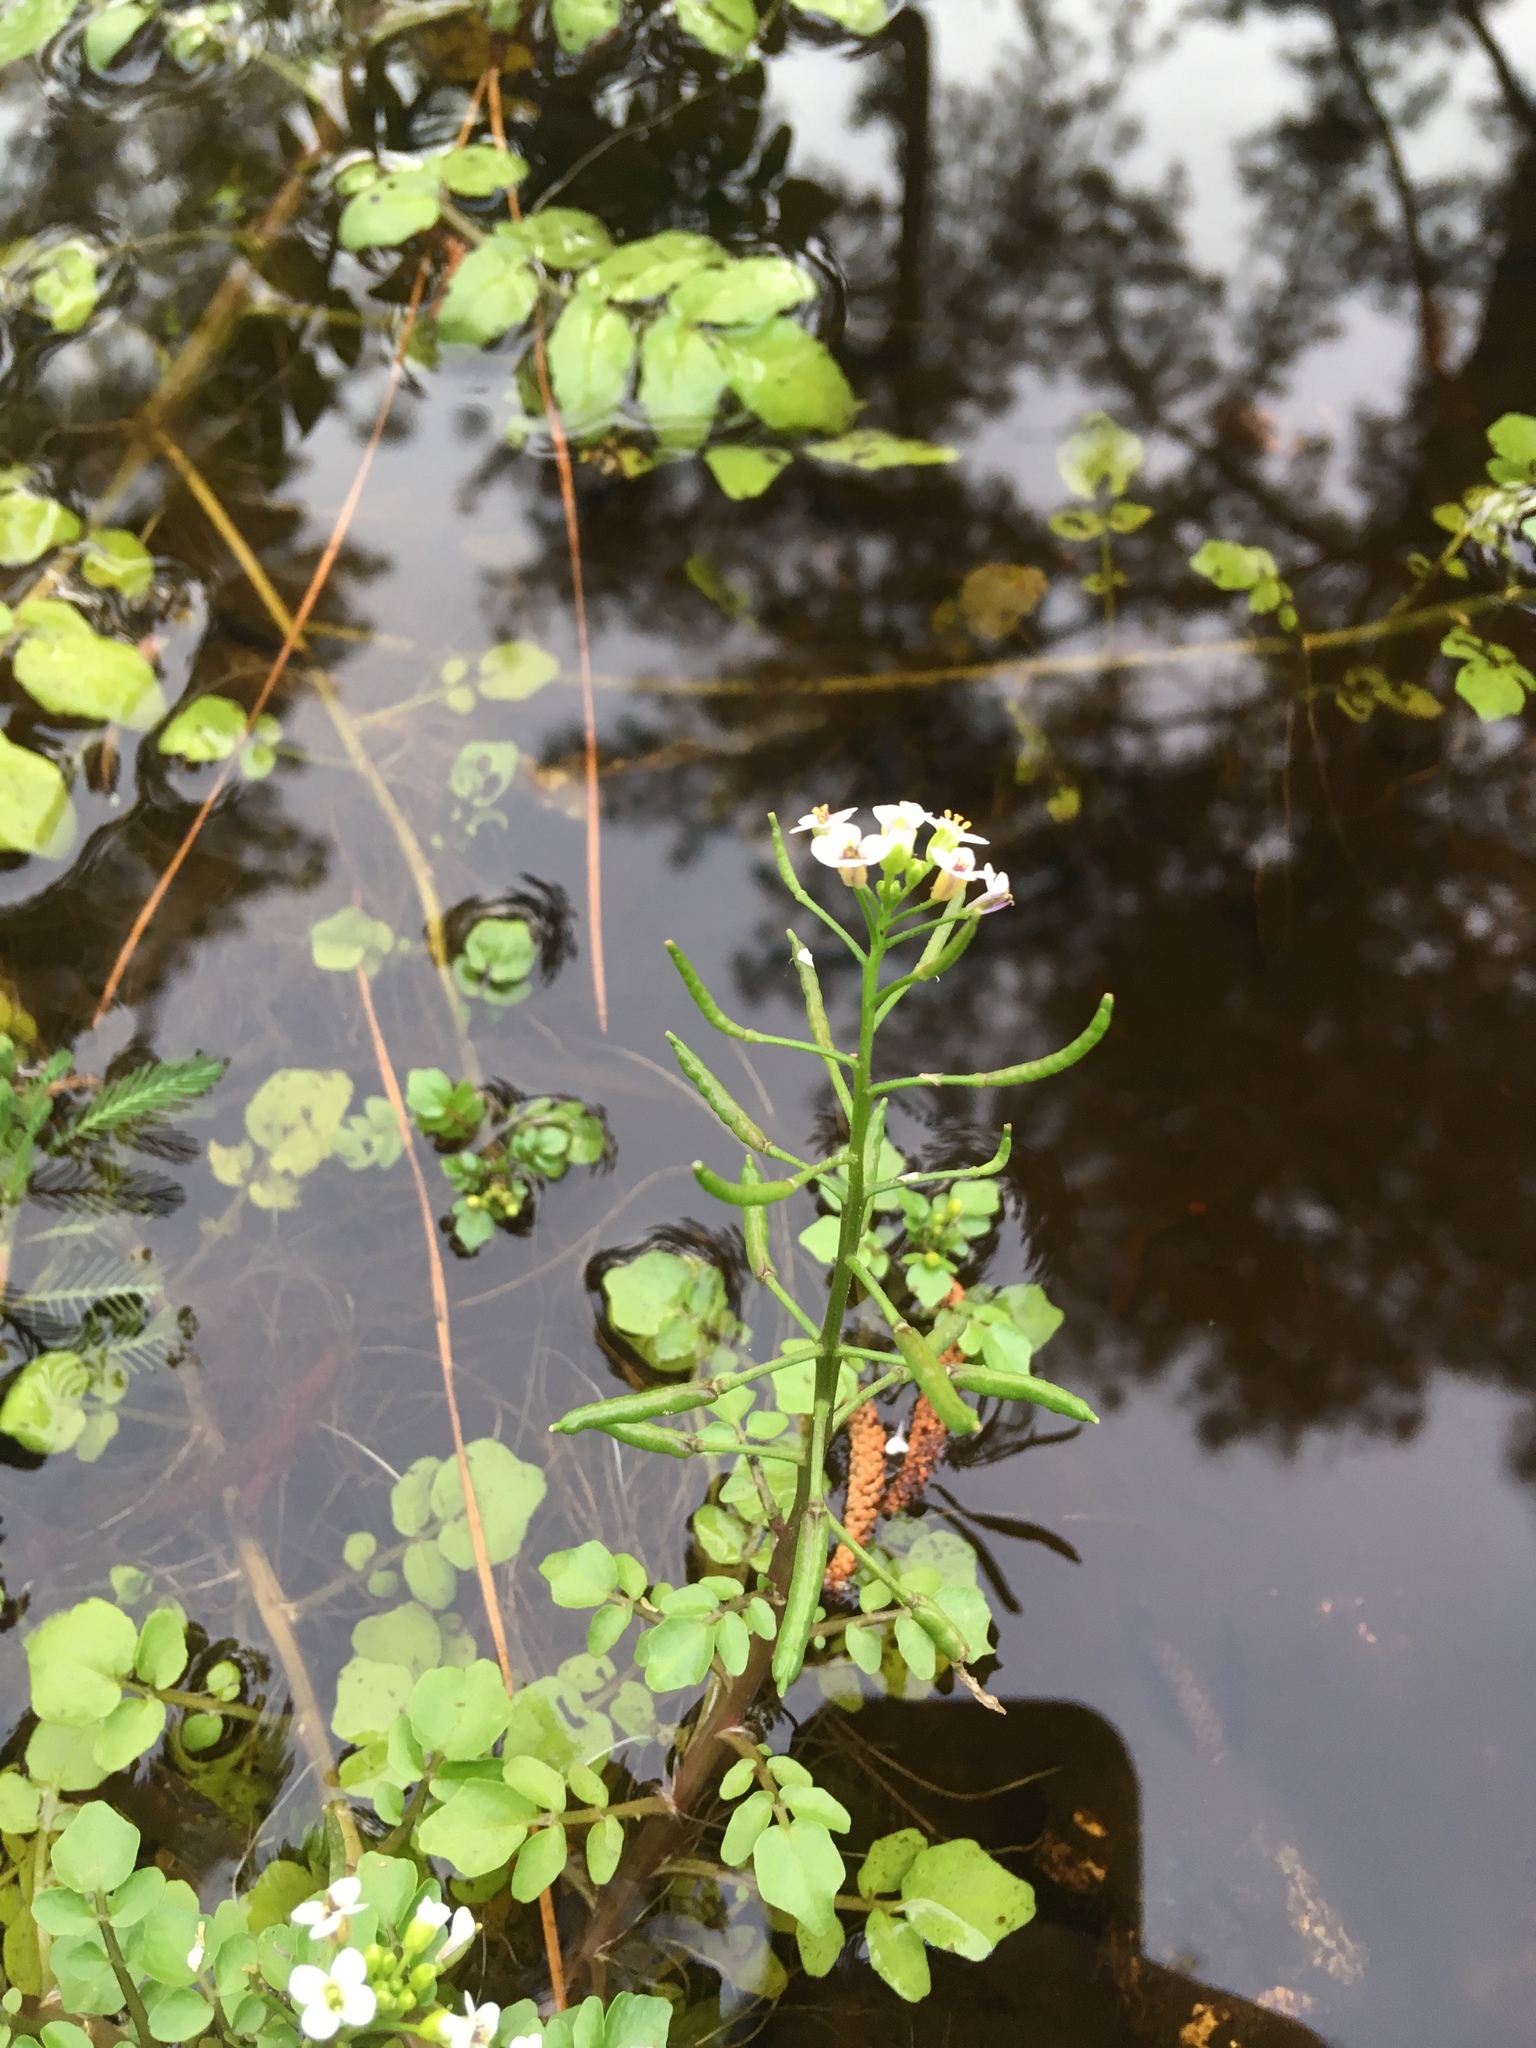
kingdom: Plantae
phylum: Tracheophyta
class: Magnoliopsida
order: Brassicales
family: Brassicaceae
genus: Nasturtium
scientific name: Nasturtium officinale
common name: Watercress
